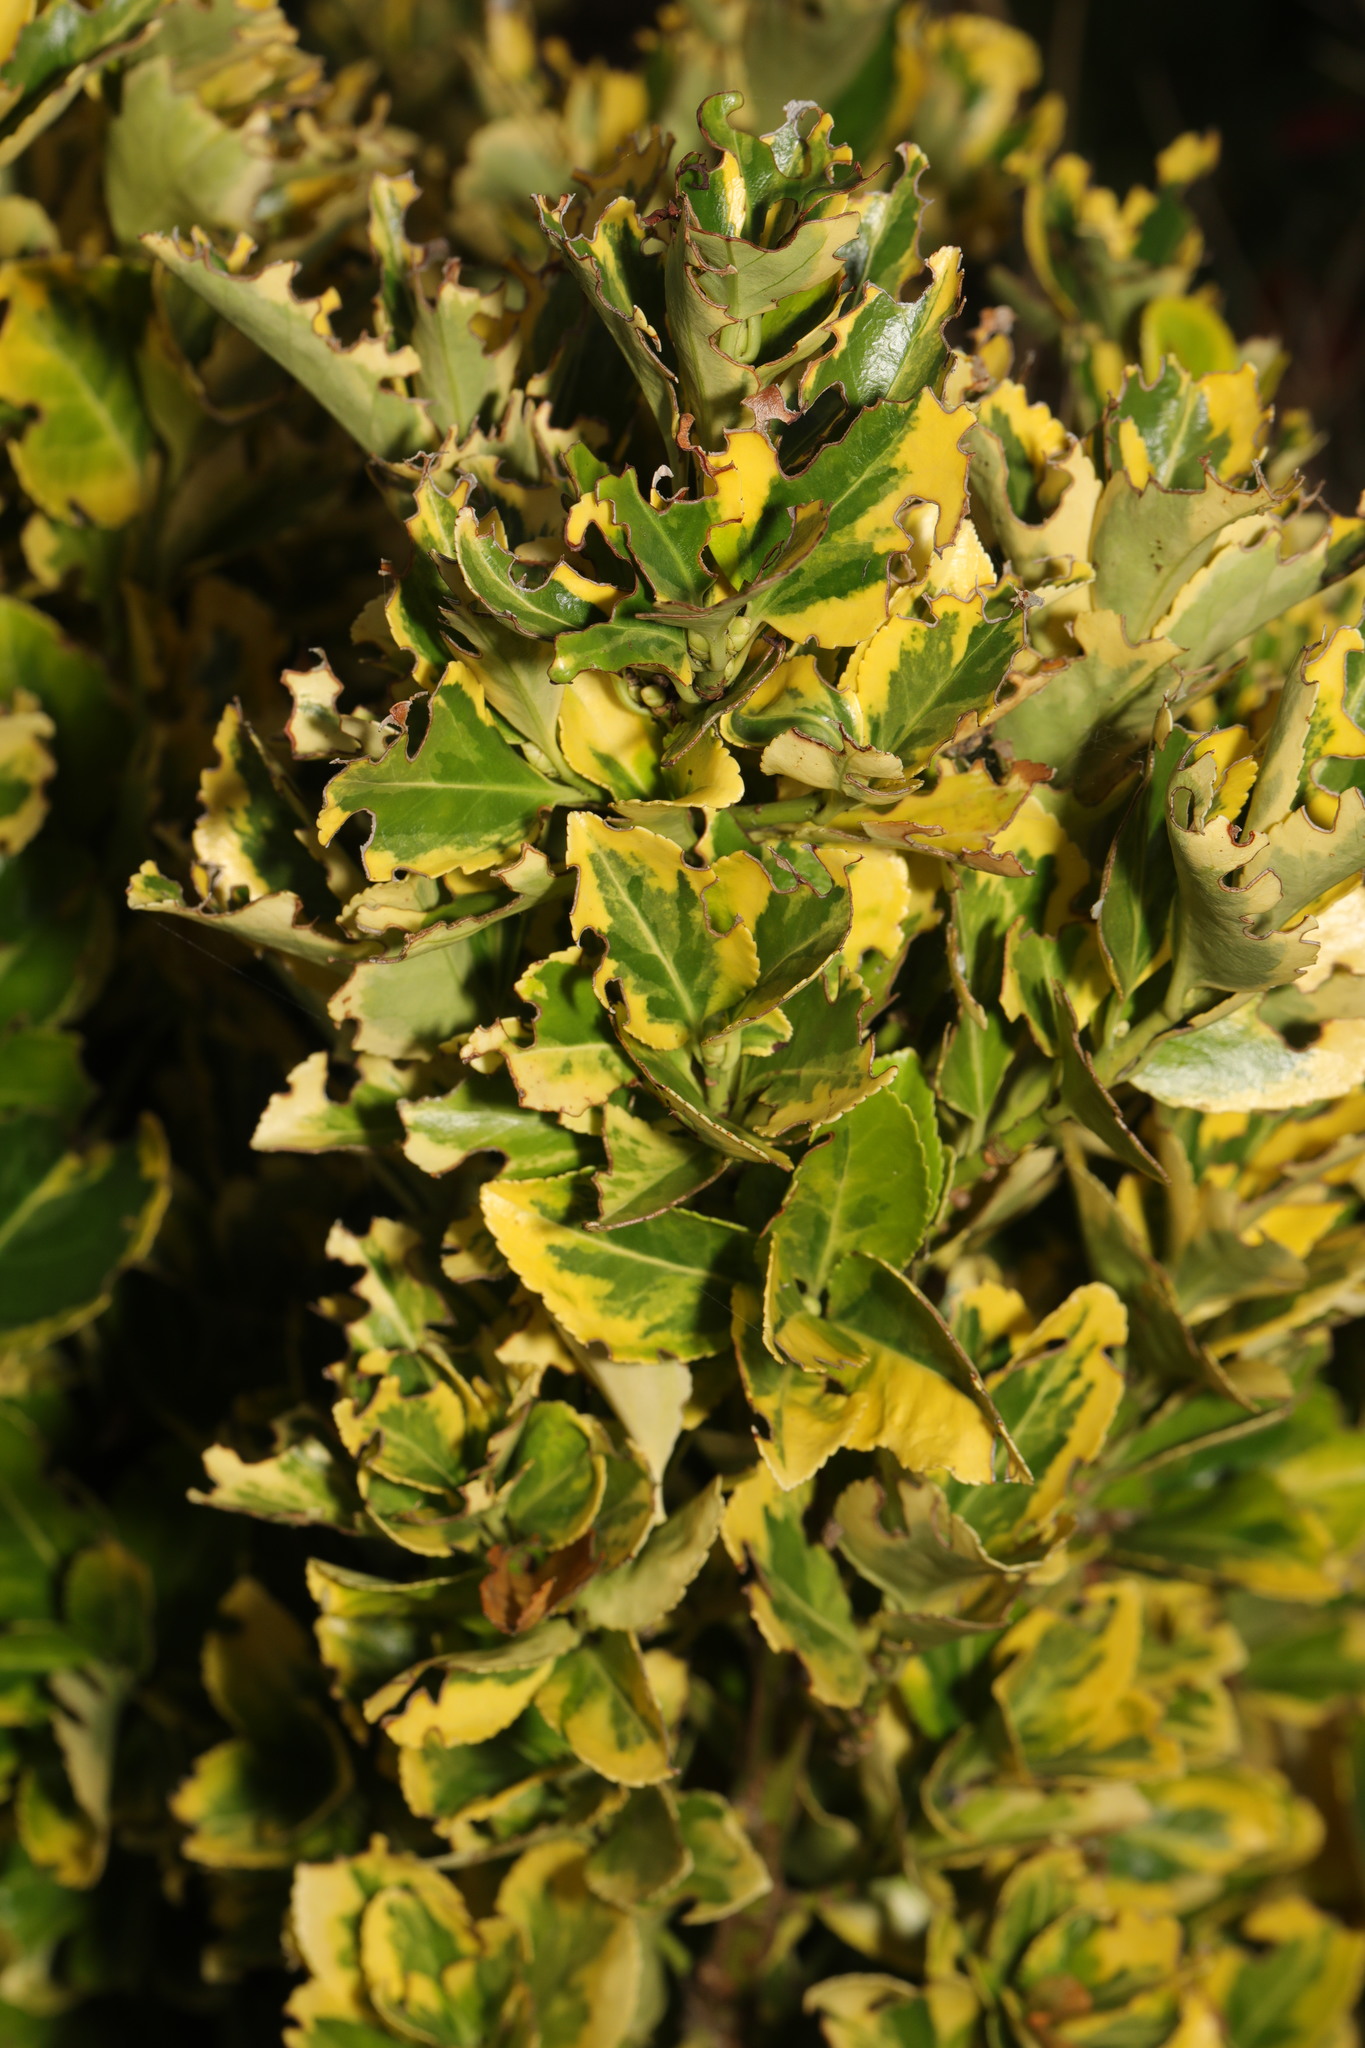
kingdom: Plantae
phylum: Tracheophyta
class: Magnoliopsida
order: Celastrales
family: Celastraceae
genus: Euonymus
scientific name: Euonymus japonicus
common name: Japanese spindletree
